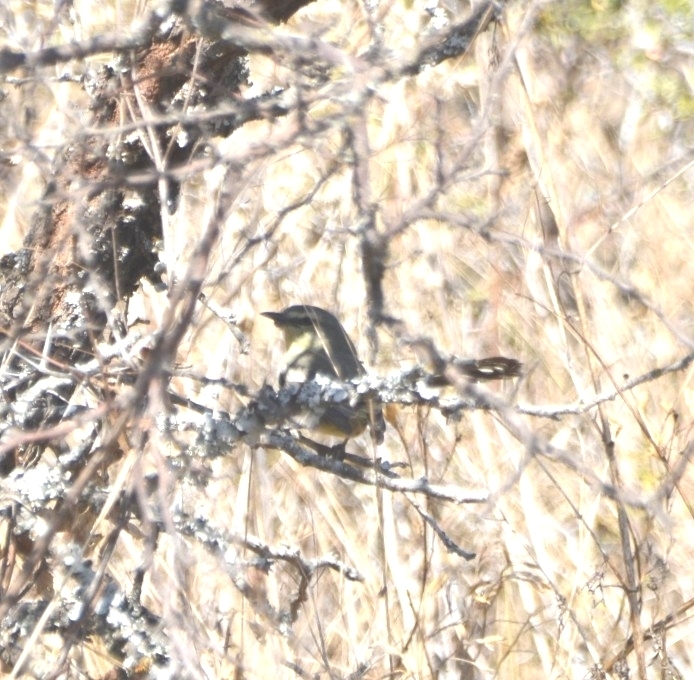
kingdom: Animalia
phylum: Chordata
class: Aves
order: Passeriformes
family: Tyrannidae
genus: Stigmatura
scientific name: Stigmatura budytoides
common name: Greater wagtail-tyrant
